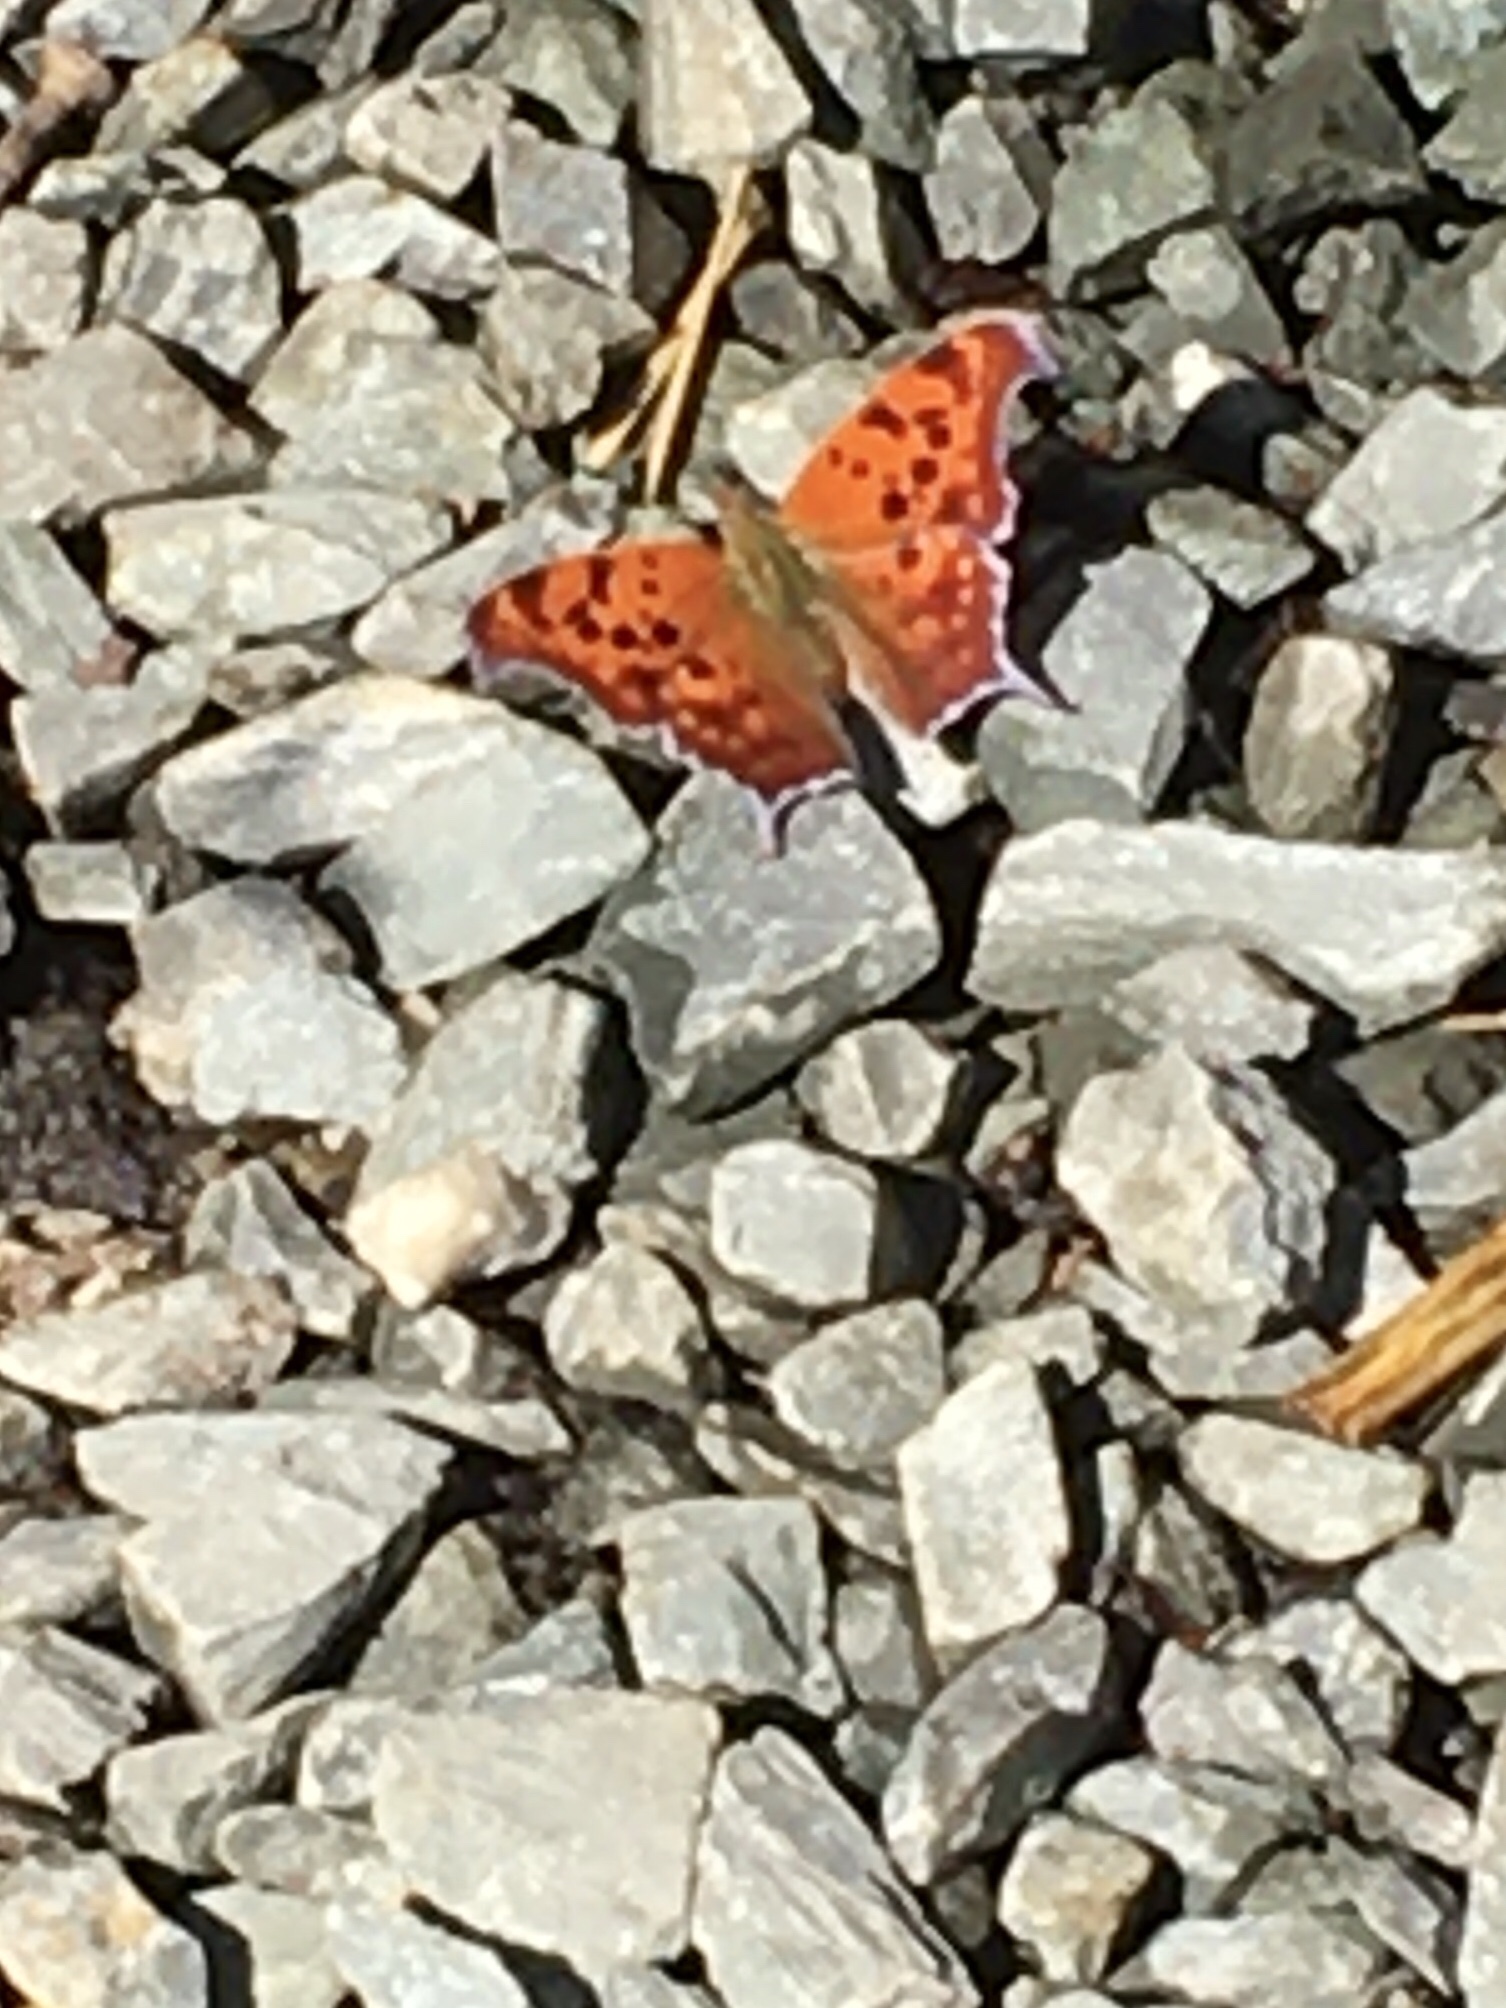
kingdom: Animalia
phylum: Arthropoda
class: Insecta
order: Lepidoptera
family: Nymphalidae
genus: Polygonia
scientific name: Polygonia interrogationis
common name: Question mark
